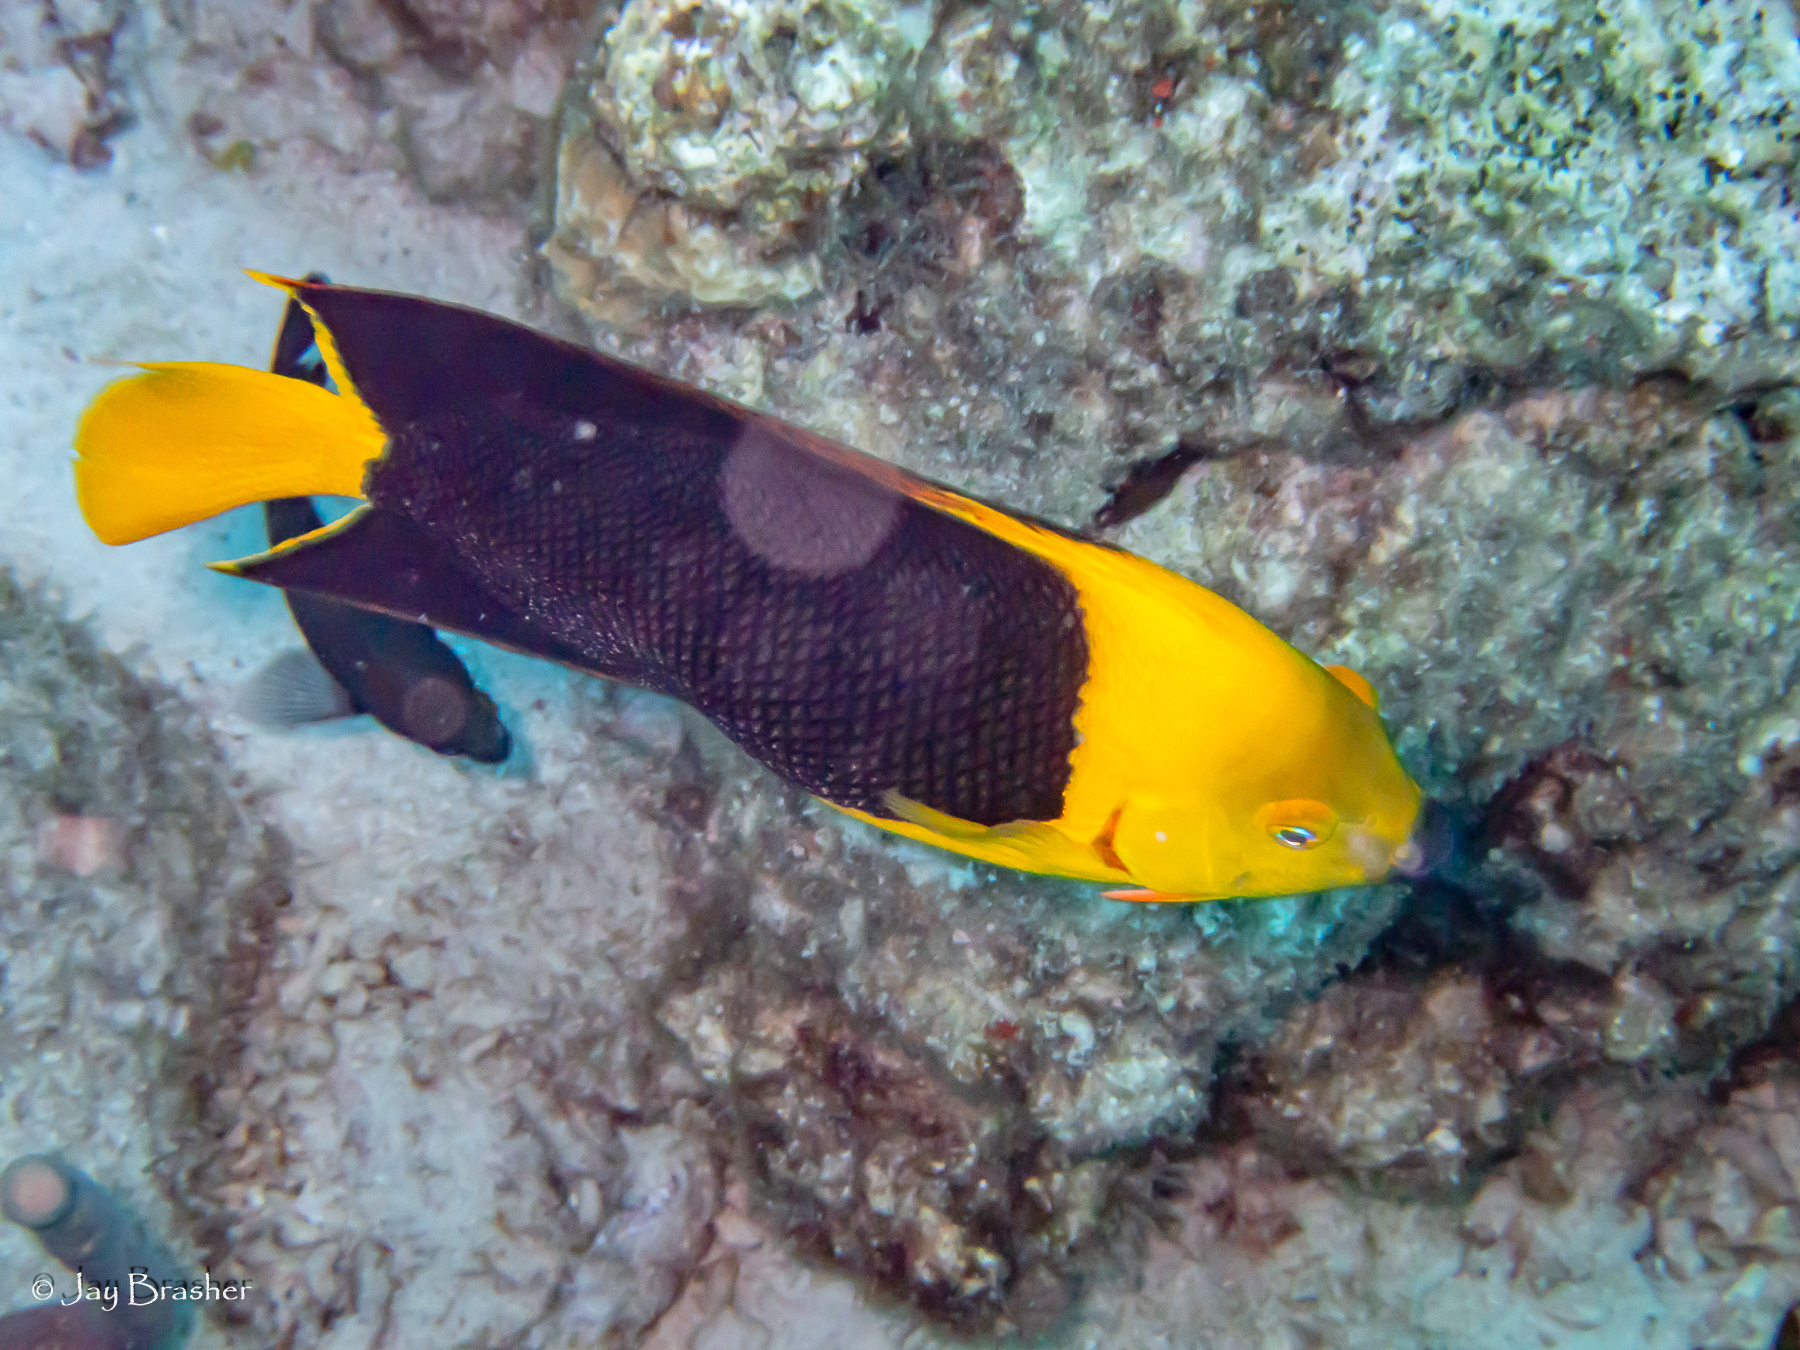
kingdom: Animalia
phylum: Chordata
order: Perciformes
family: Pomacanthidae
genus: Holacanthus
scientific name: Holacanthus tricolor
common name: Rock beauty
